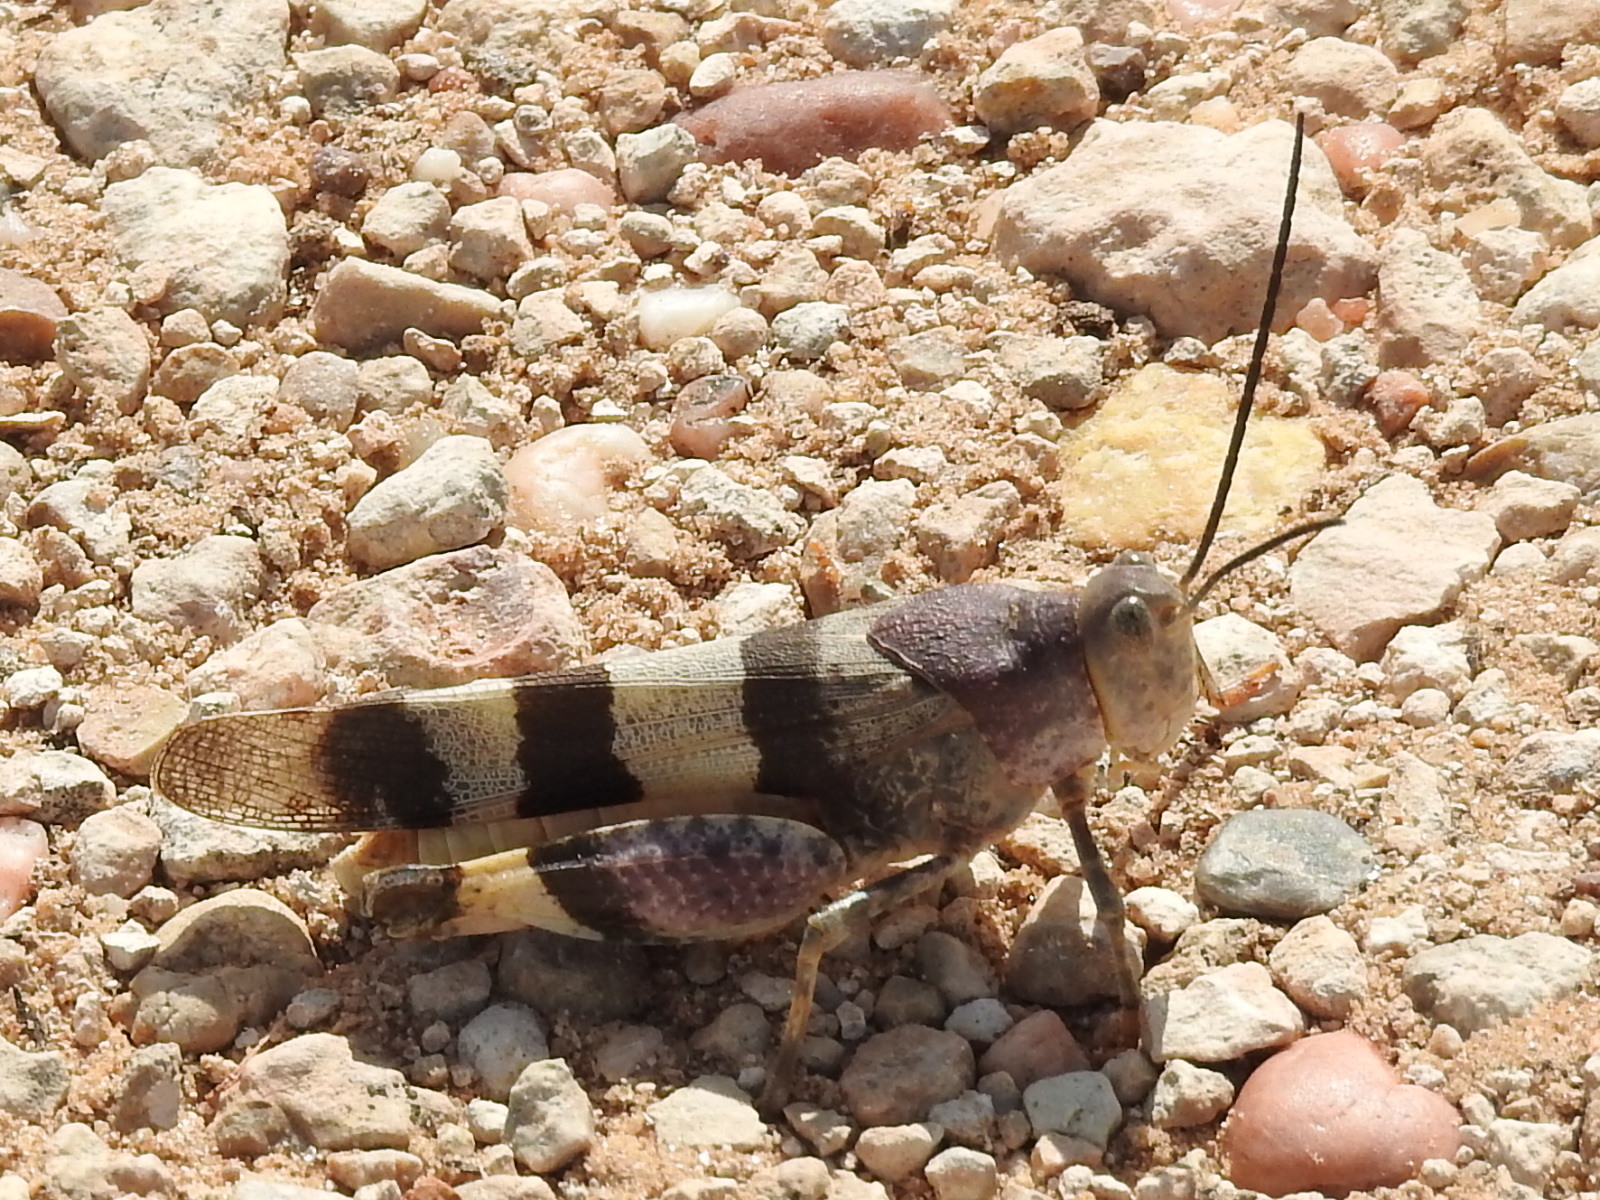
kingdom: Animalia
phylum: Arthropoda
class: Insecta
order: Orthoptera
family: Acrididae
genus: Hadrotettix
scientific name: Hadrotettix trifasciatus
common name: Threebanded grasshopper
